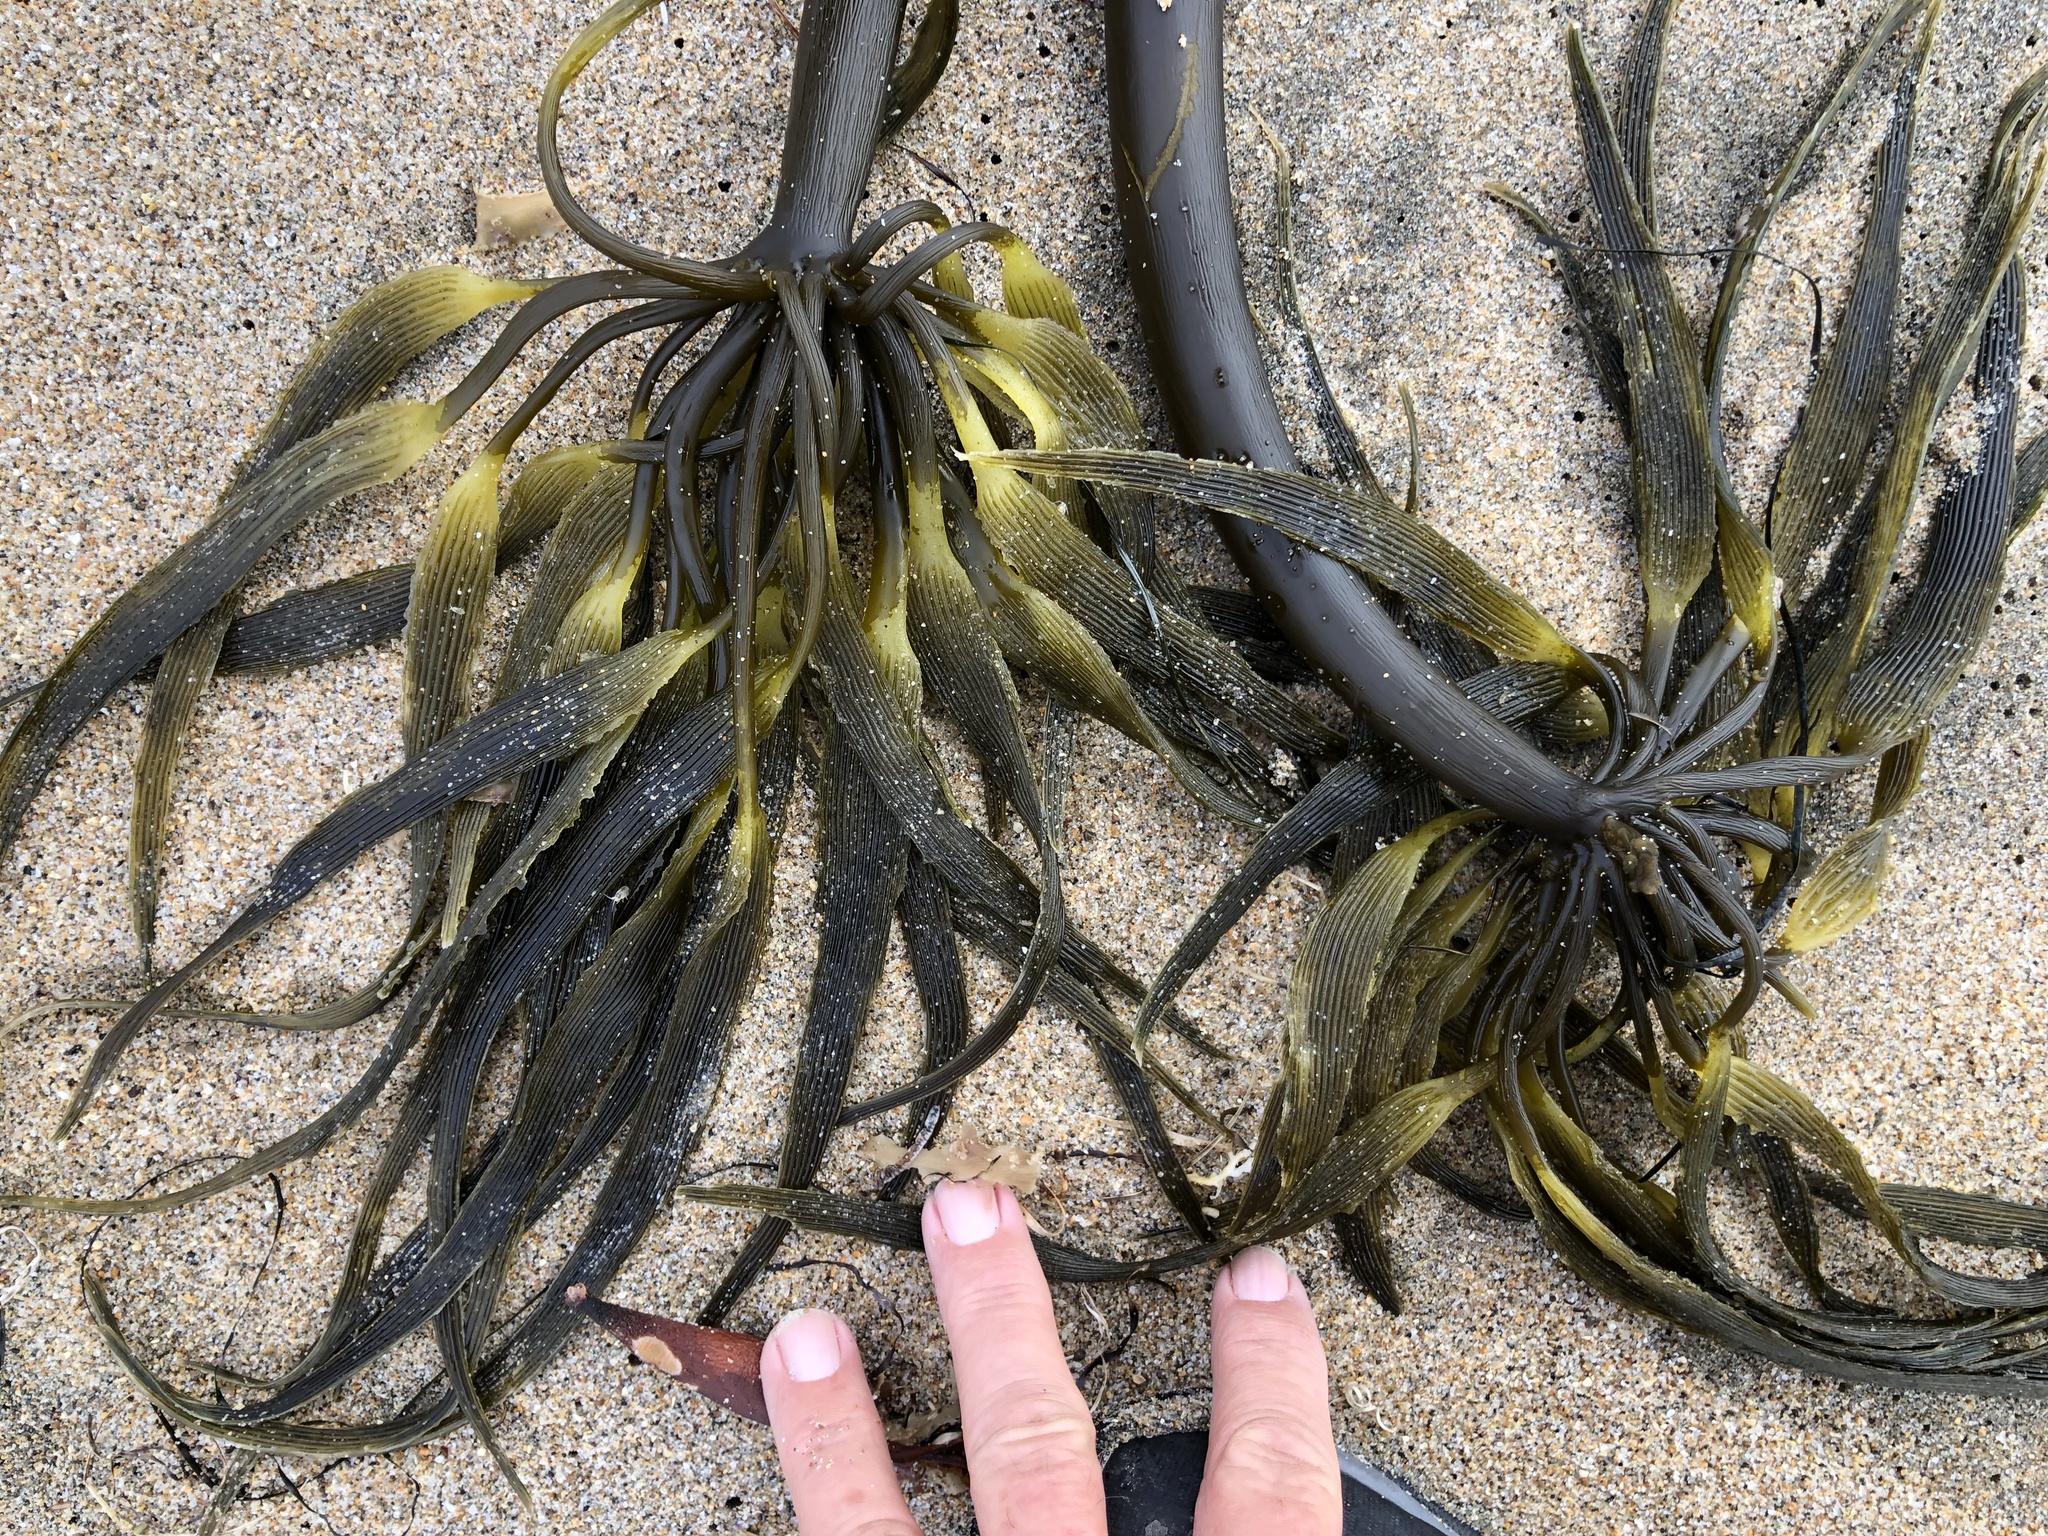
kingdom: Chromista
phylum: Ochrophyta
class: Phaeophyceae
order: Laminariales
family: Laminariaceae
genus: Postelsia
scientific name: Postelsia palmiformis
